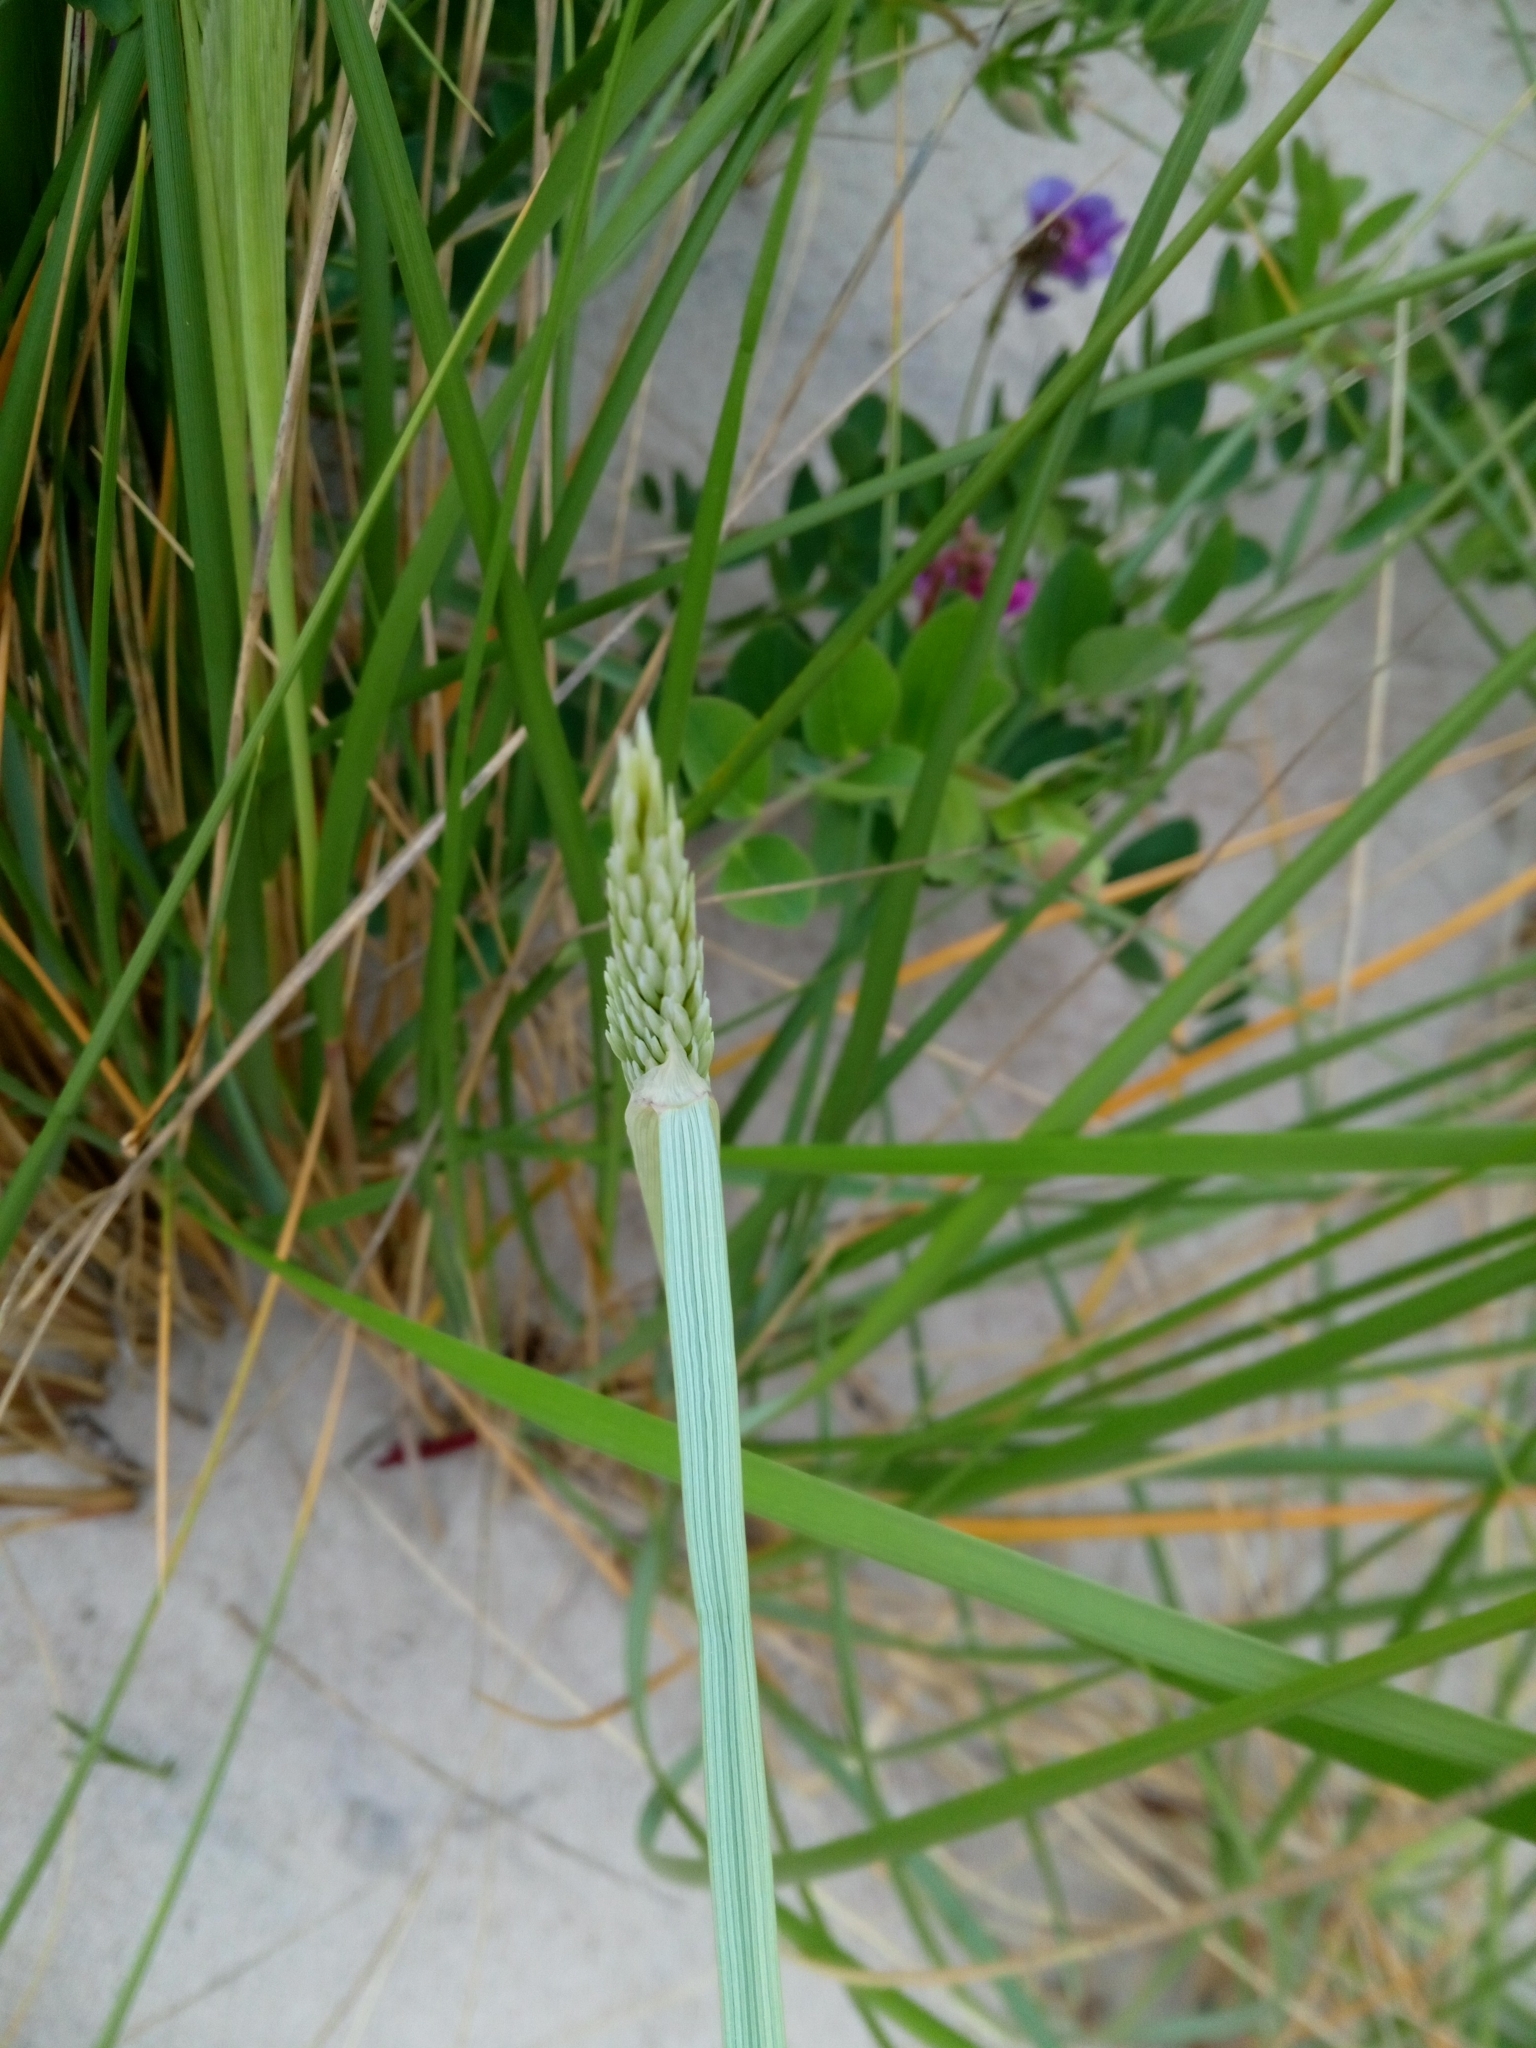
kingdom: Plantae
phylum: Tracheophyta
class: Liliopsida
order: Poales
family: Poaceae
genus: Calamagrostis
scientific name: Calamagrostis arenaria
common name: European beachgrass
